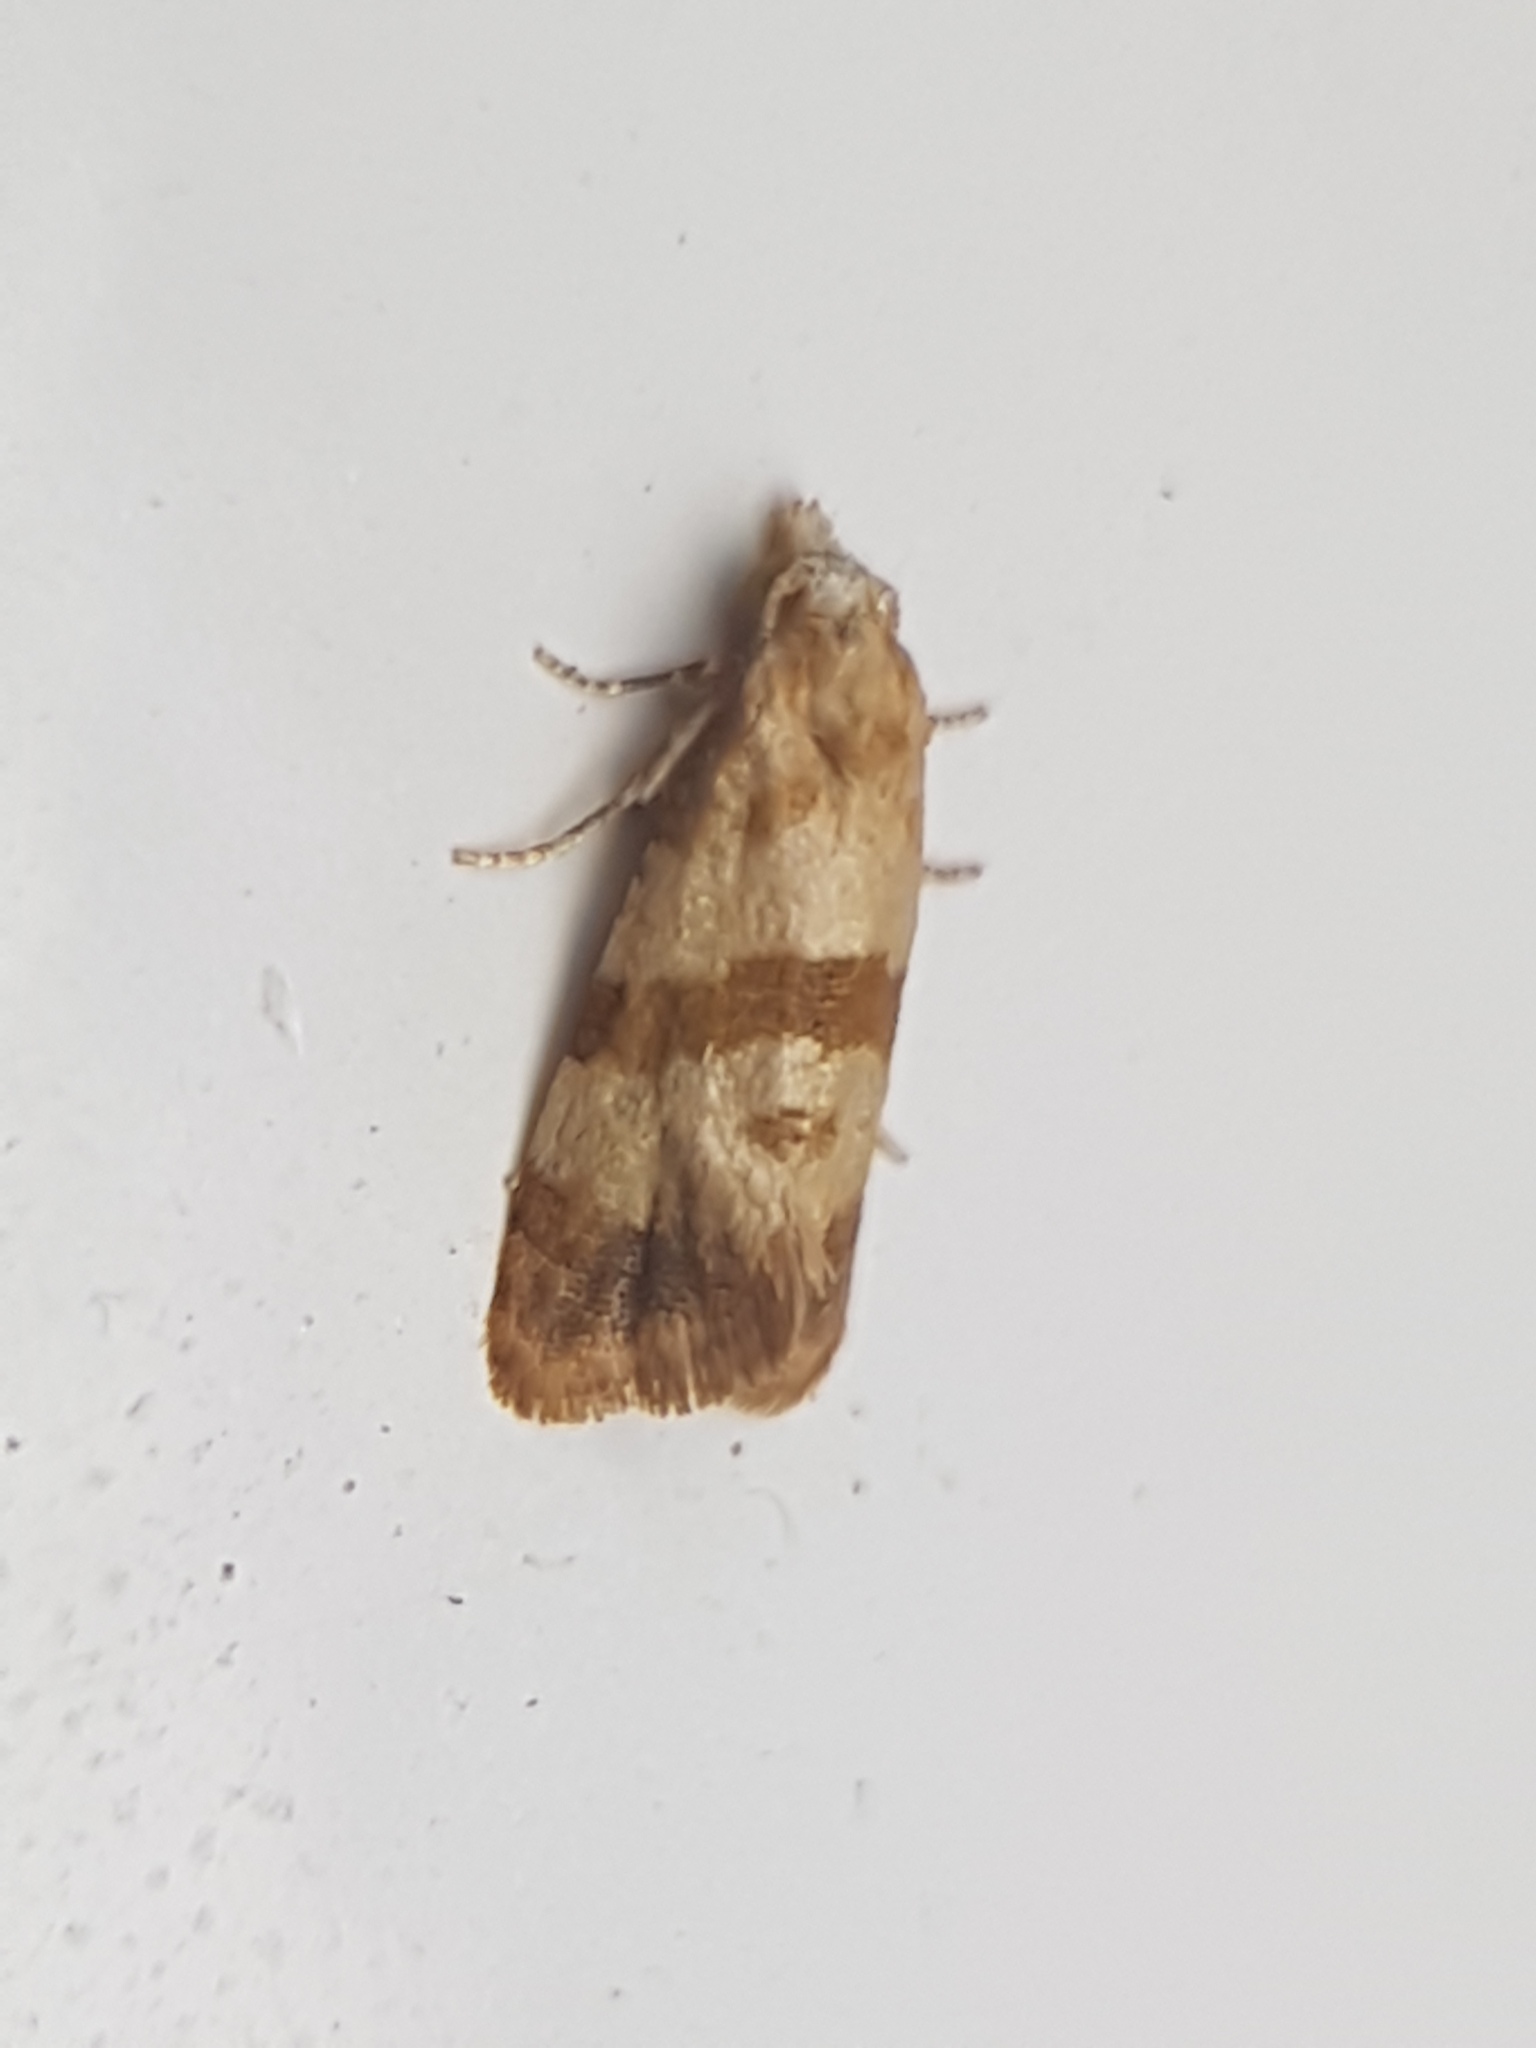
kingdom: Animalia
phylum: Arthropoda
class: Insecta
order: Lepidoptera
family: Tortricidae
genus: Phalonidia
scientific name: Phalonidia contractana
